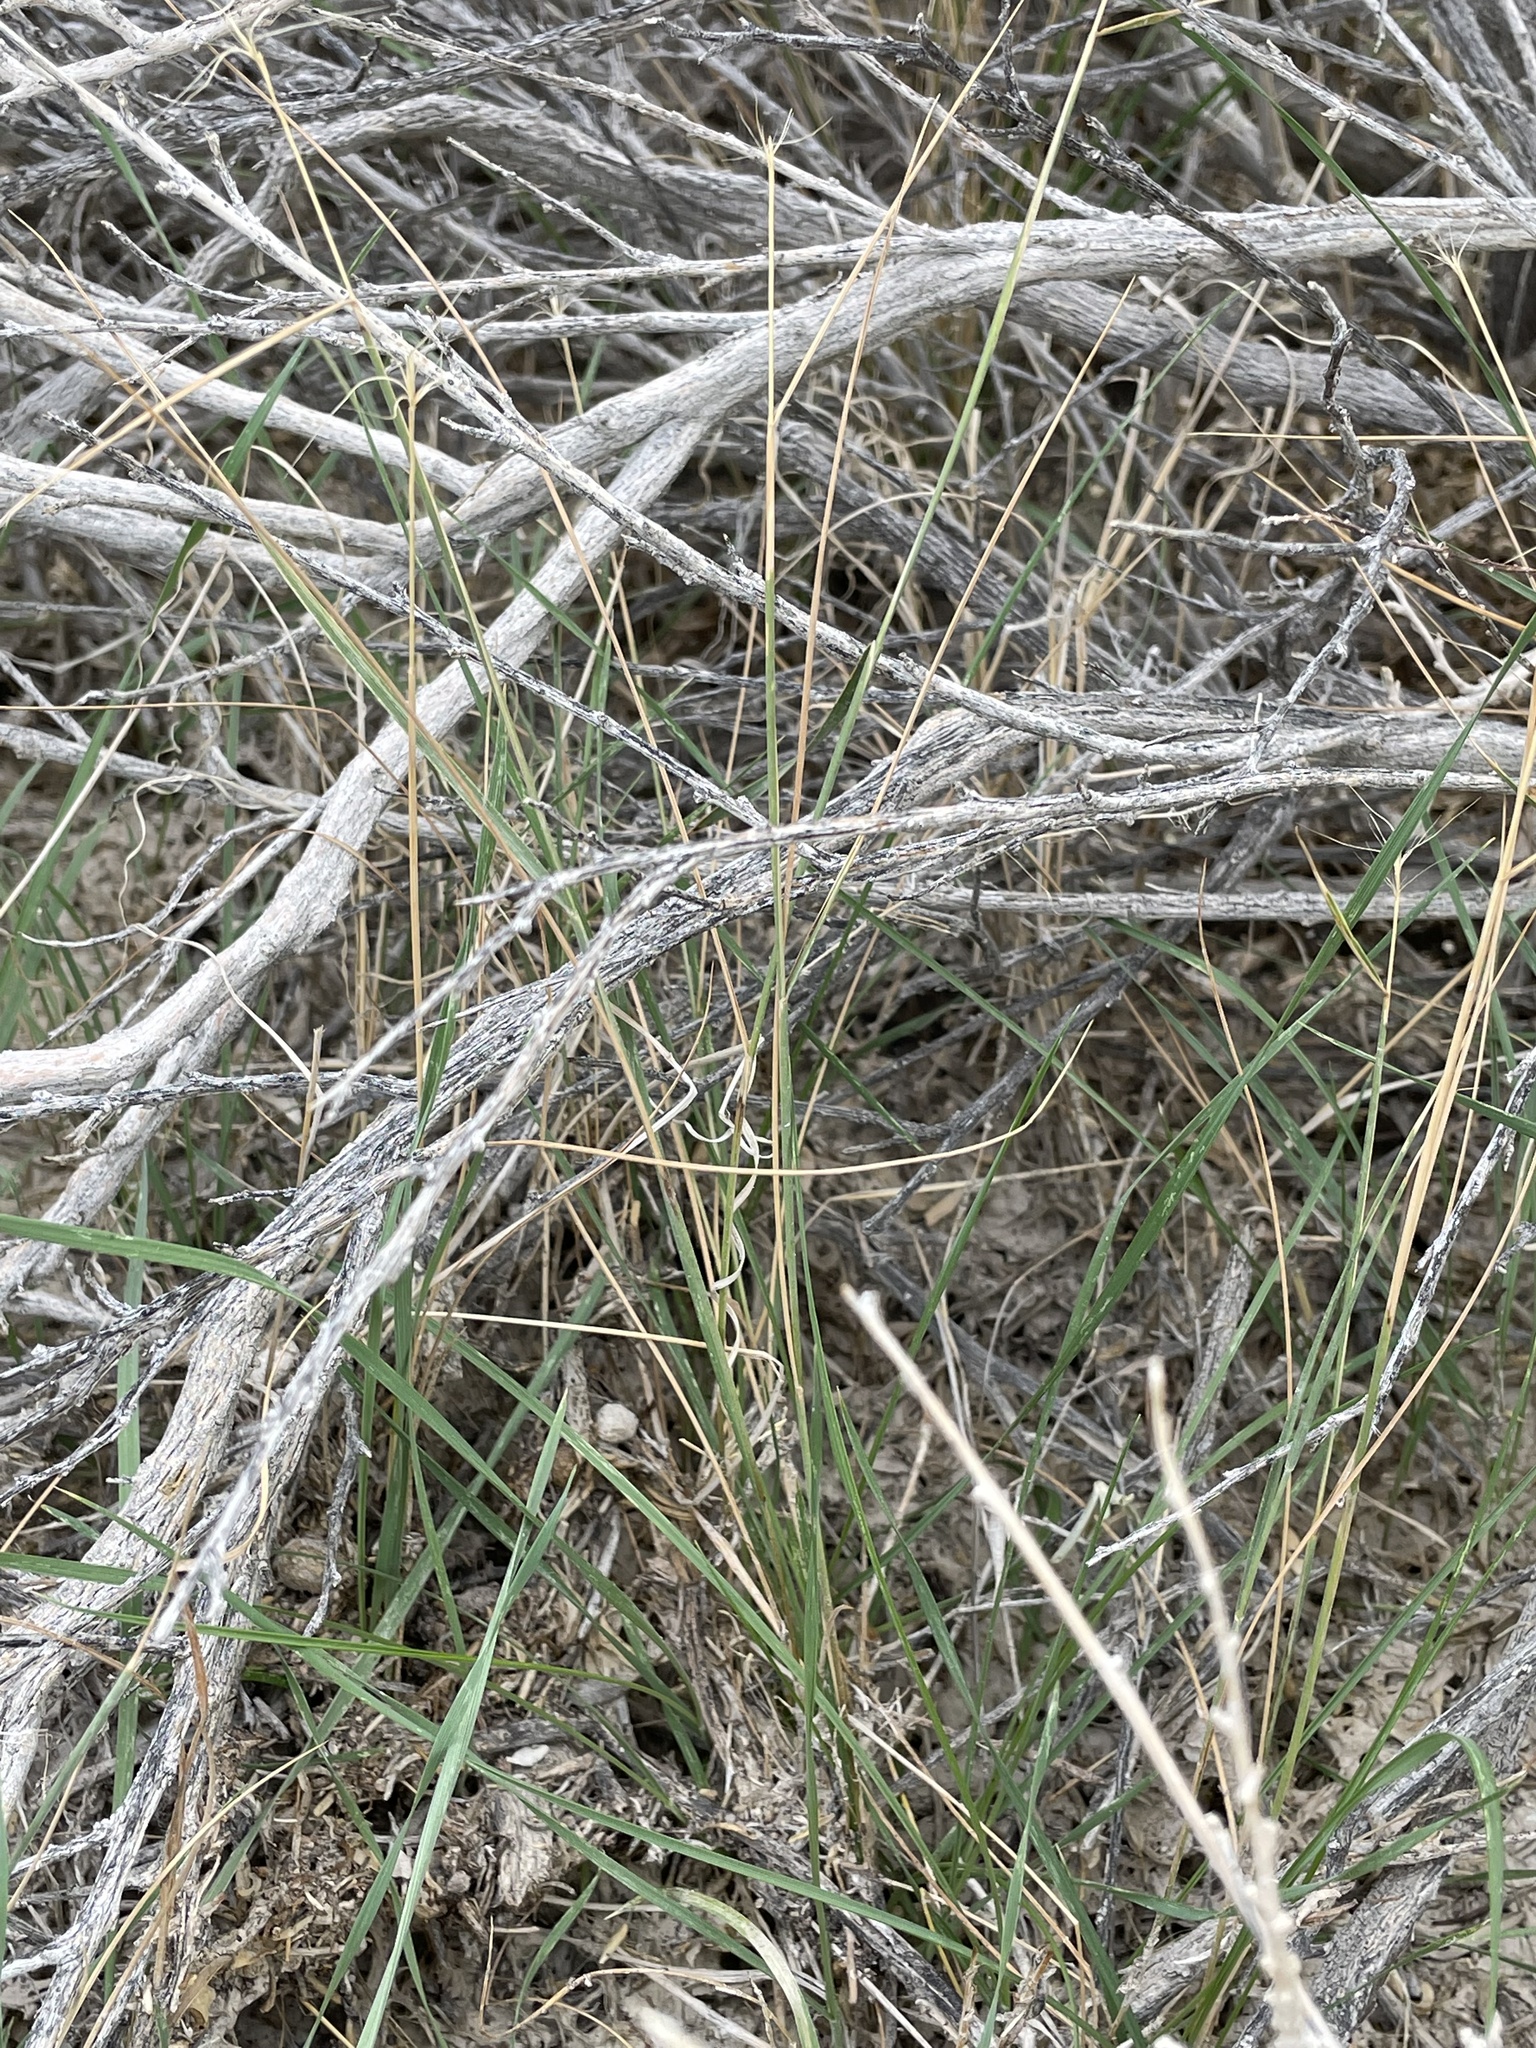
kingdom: Plantae
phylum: Tracheophyta
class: Liliopsida
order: Poales
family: Poaceae
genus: Elymus
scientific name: Elymus elymoides
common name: Bottlebrush squirreltail
